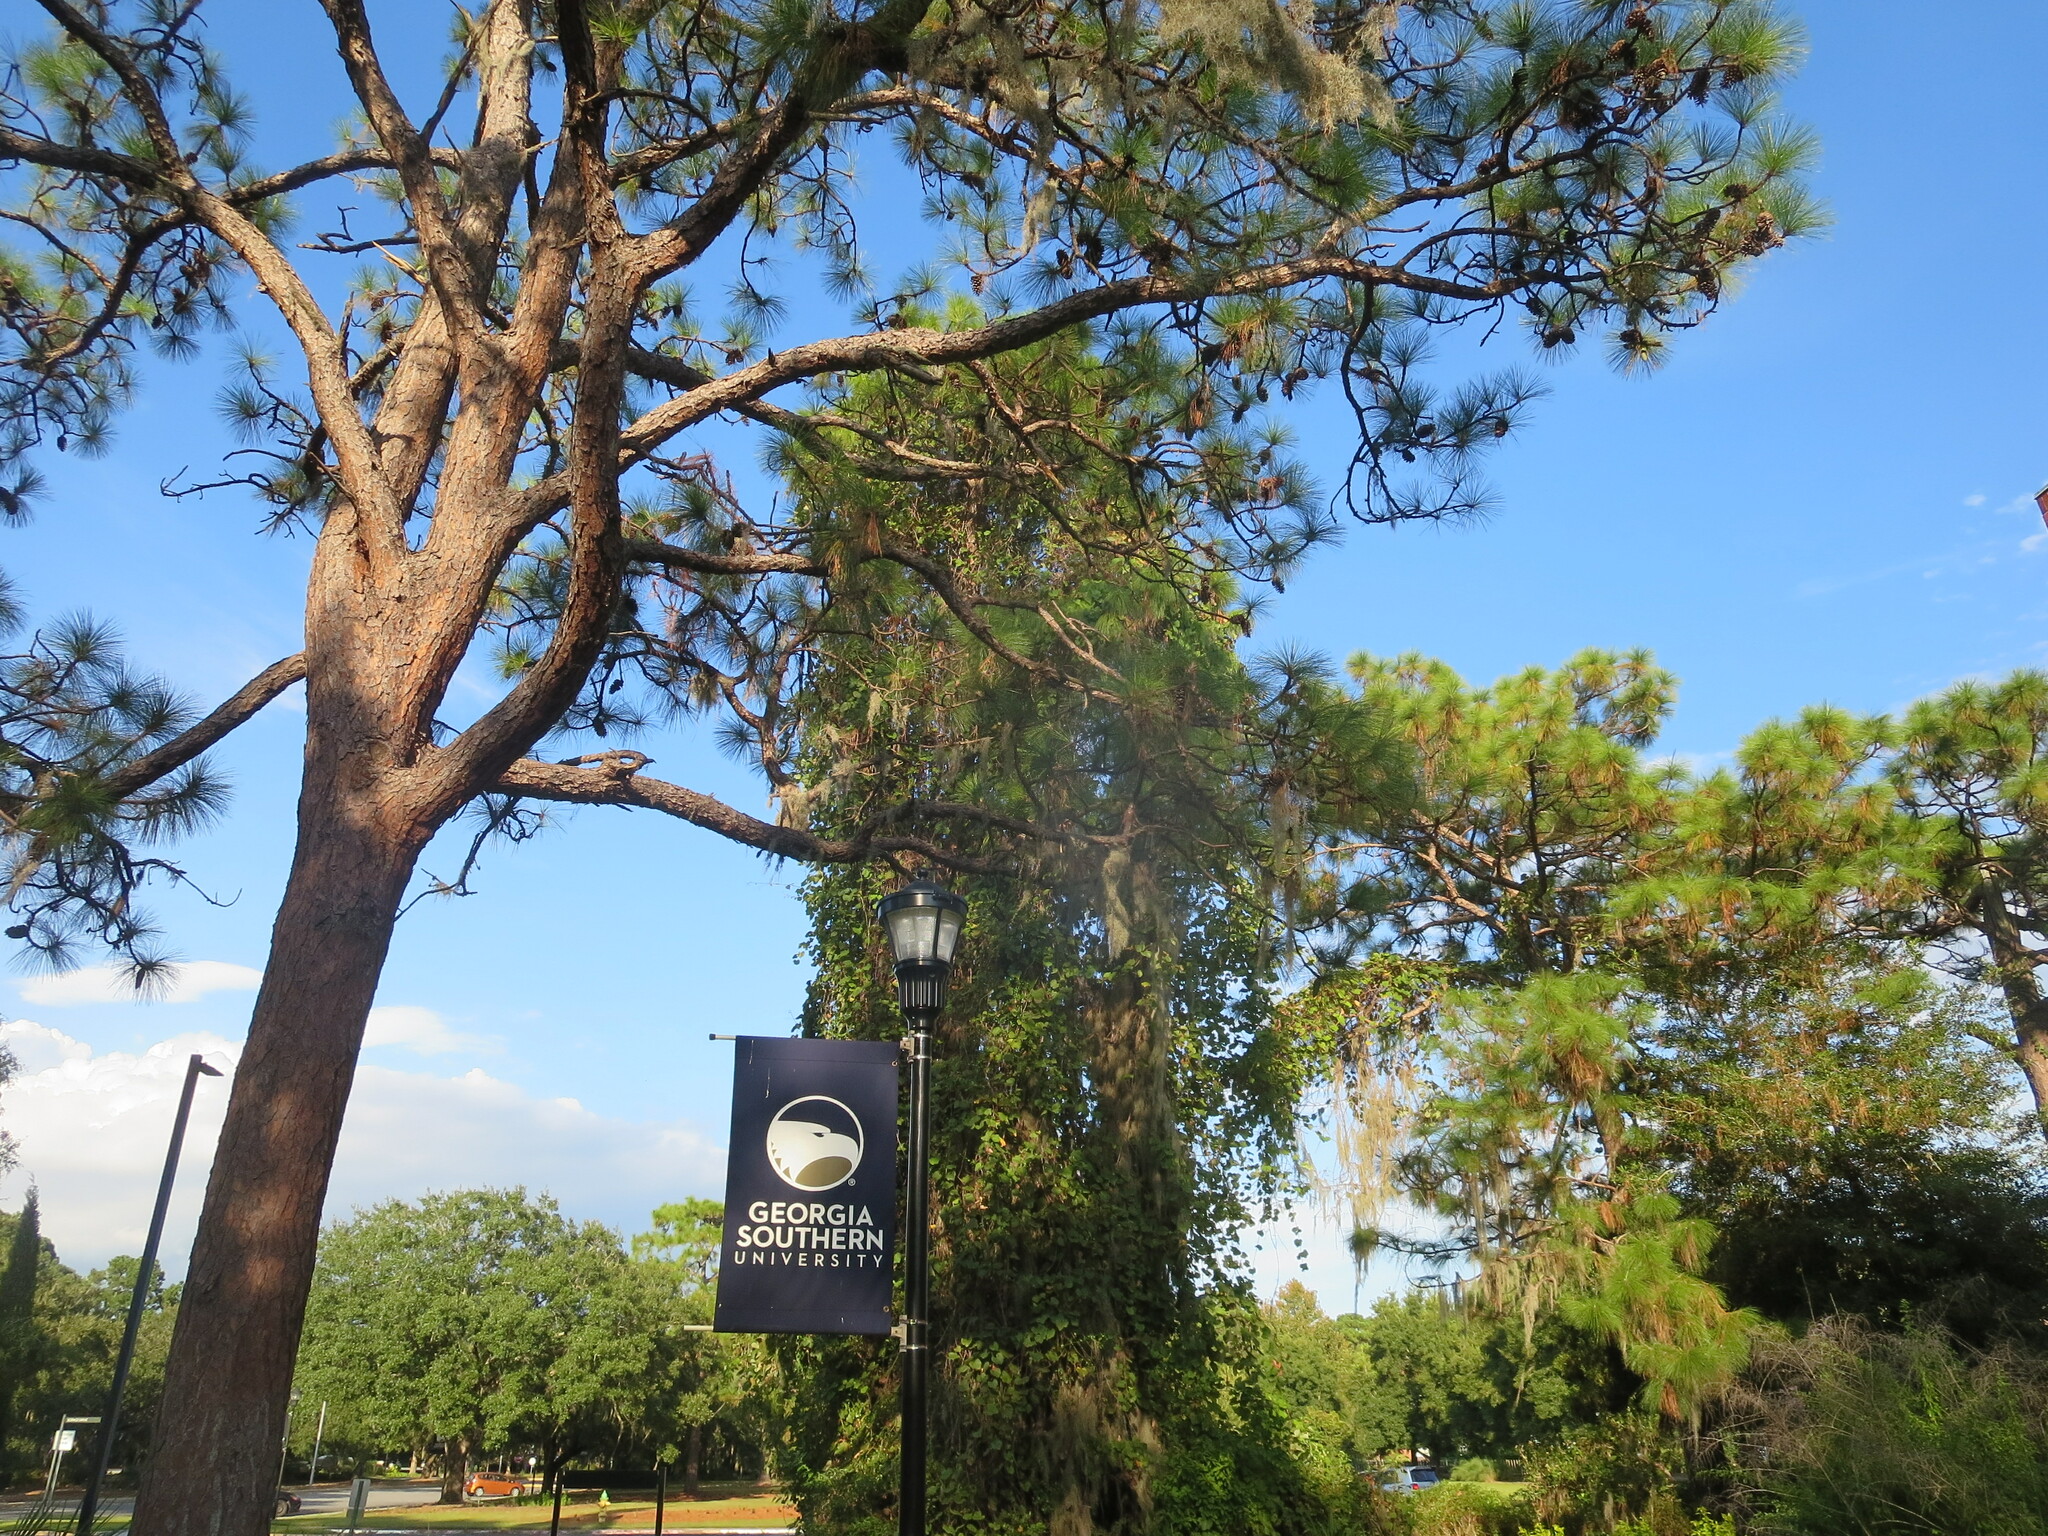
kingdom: Plantae
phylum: Tracheophyta
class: Pinopsida
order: Pinales
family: Pinaceae
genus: Pinus
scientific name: Pinus palustris
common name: Longleaf pine
